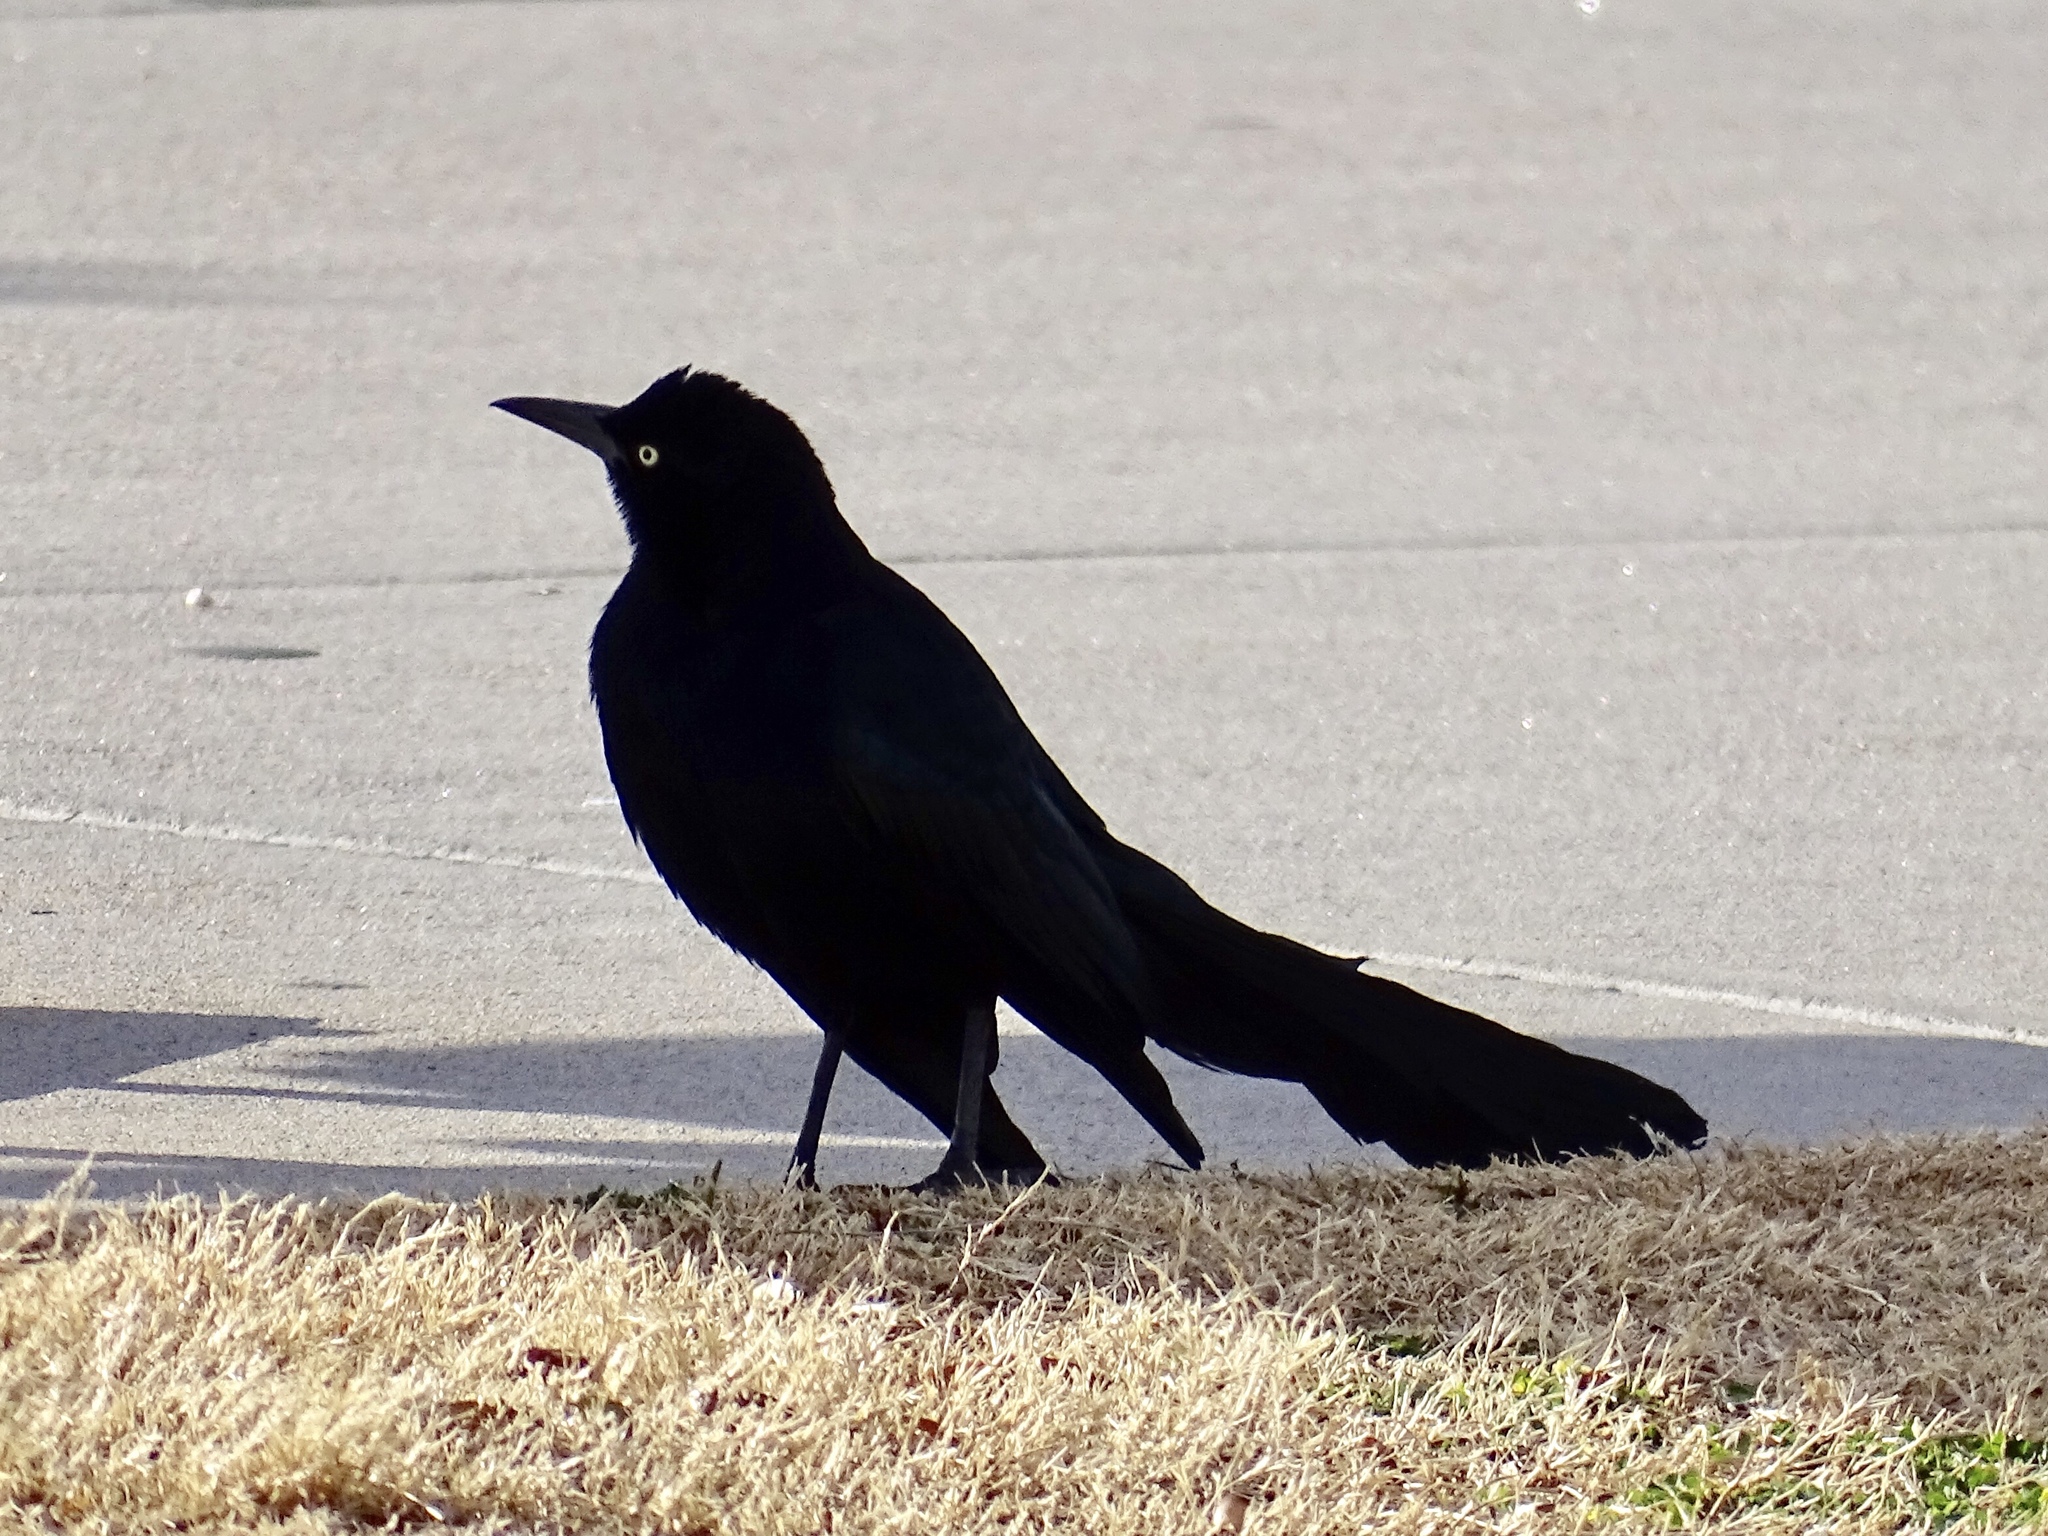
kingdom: Animalia
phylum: Chordata
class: Aves
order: Passeriformes
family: Icteridae
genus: Quiscalus
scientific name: Quiscalus mexicanus
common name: Great-tailed grackle
